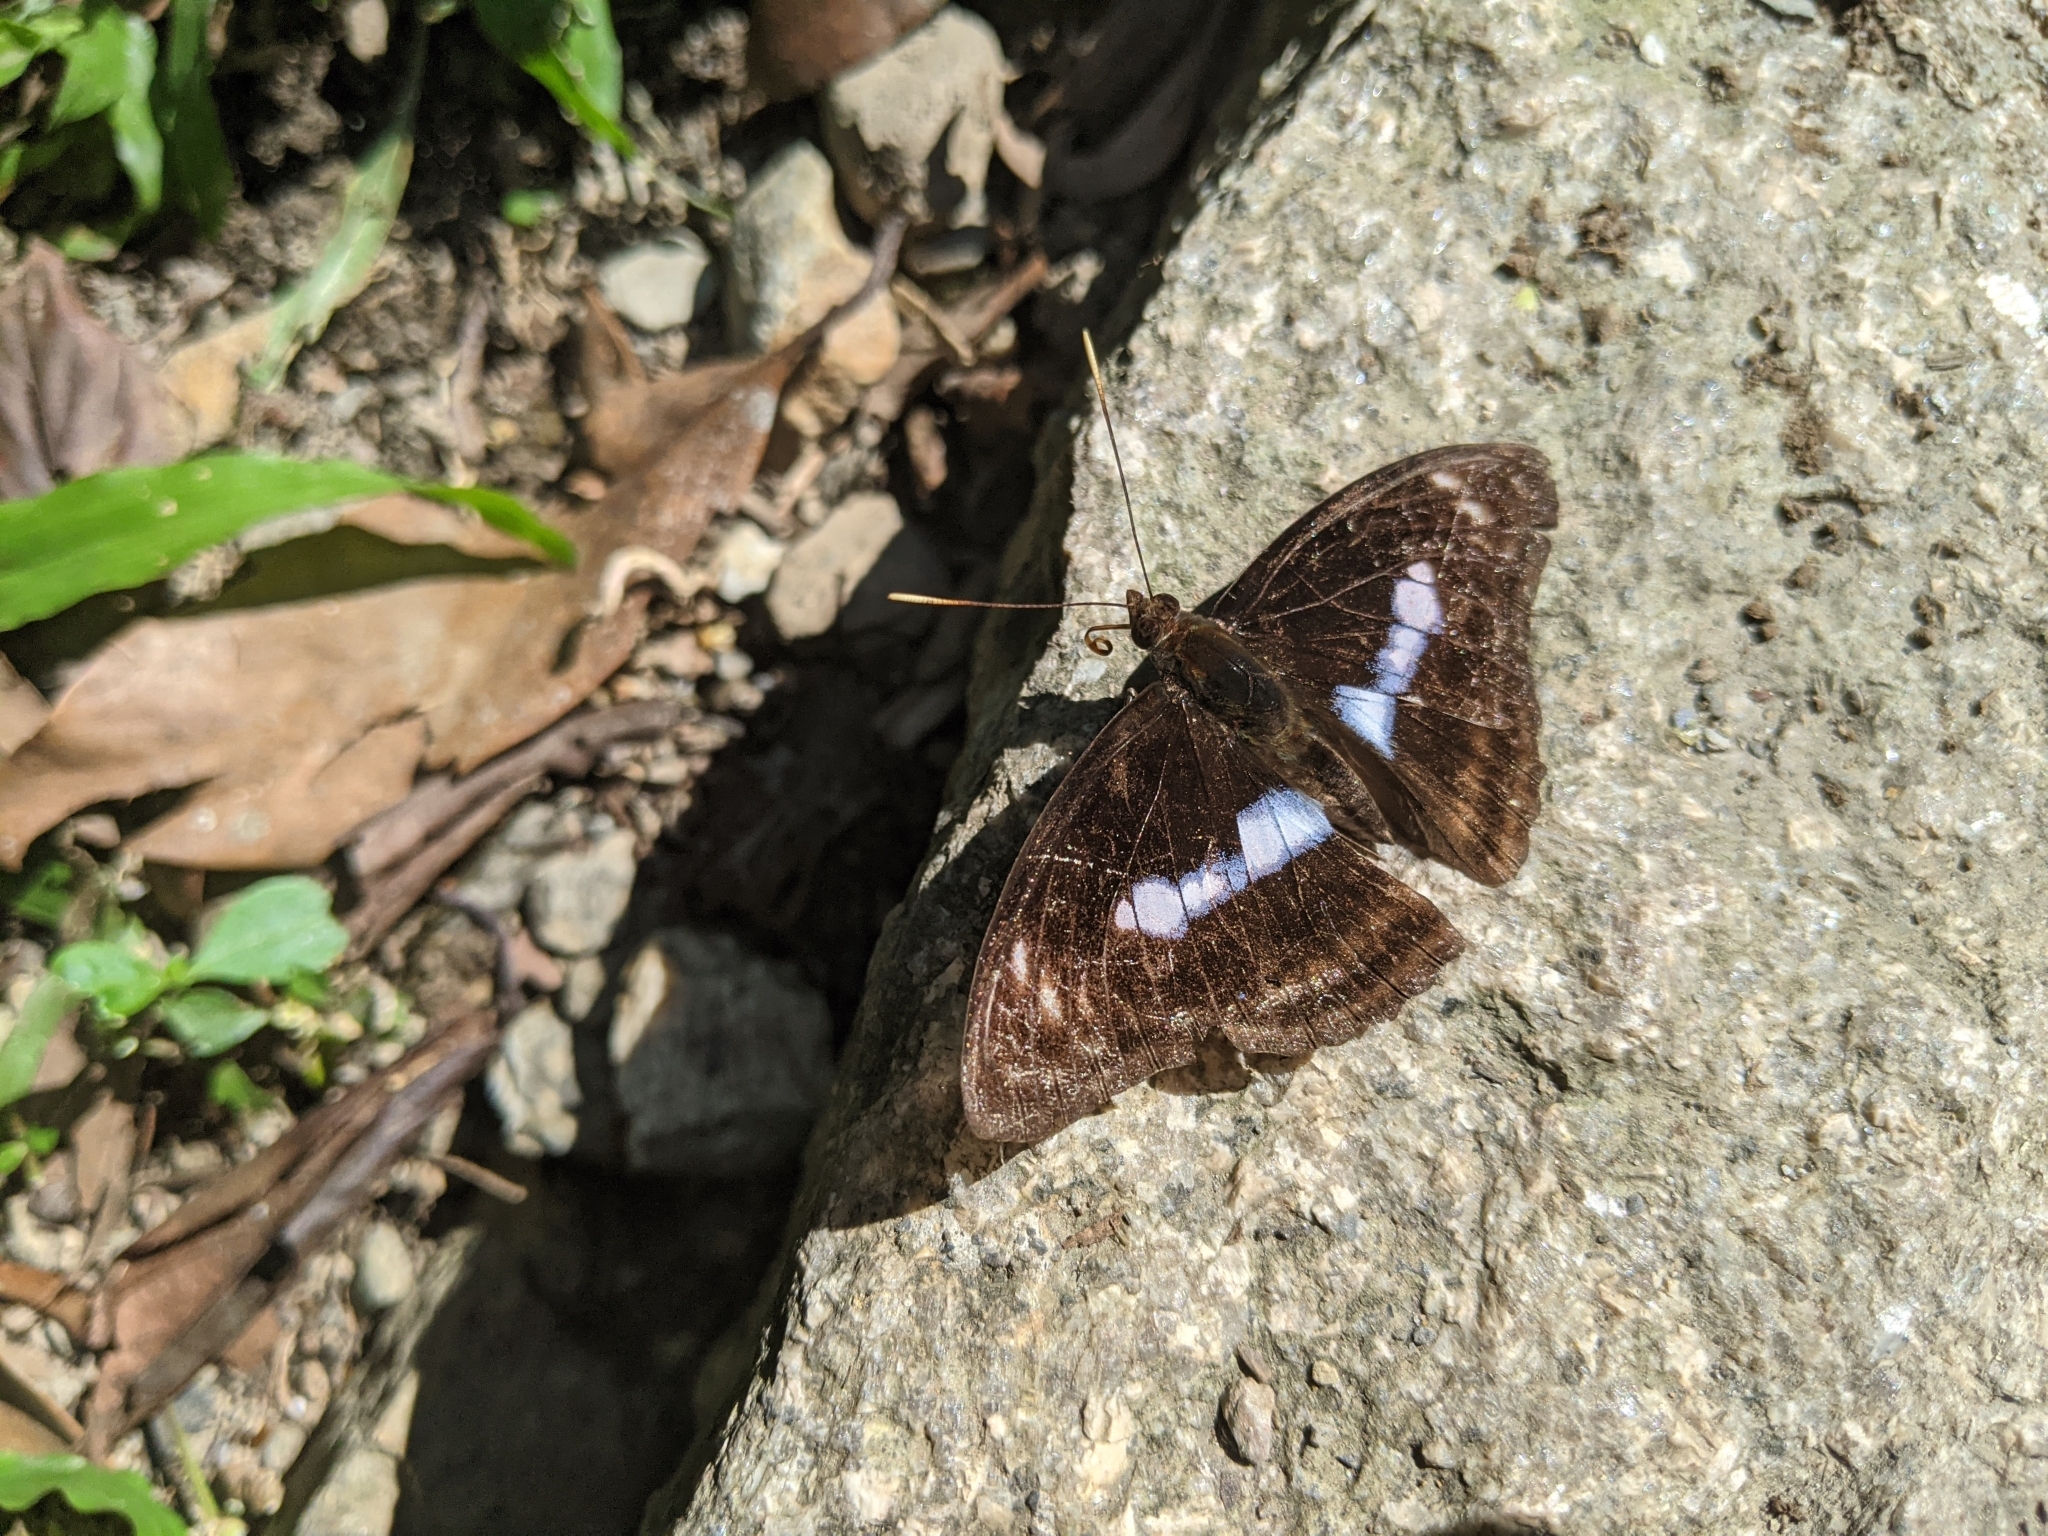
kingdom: Animalia
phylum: Arthropoda
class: Insecta
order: Lepidoptera
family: Nymphalidae
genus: Parathyma
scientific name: Parathyma selenophora
